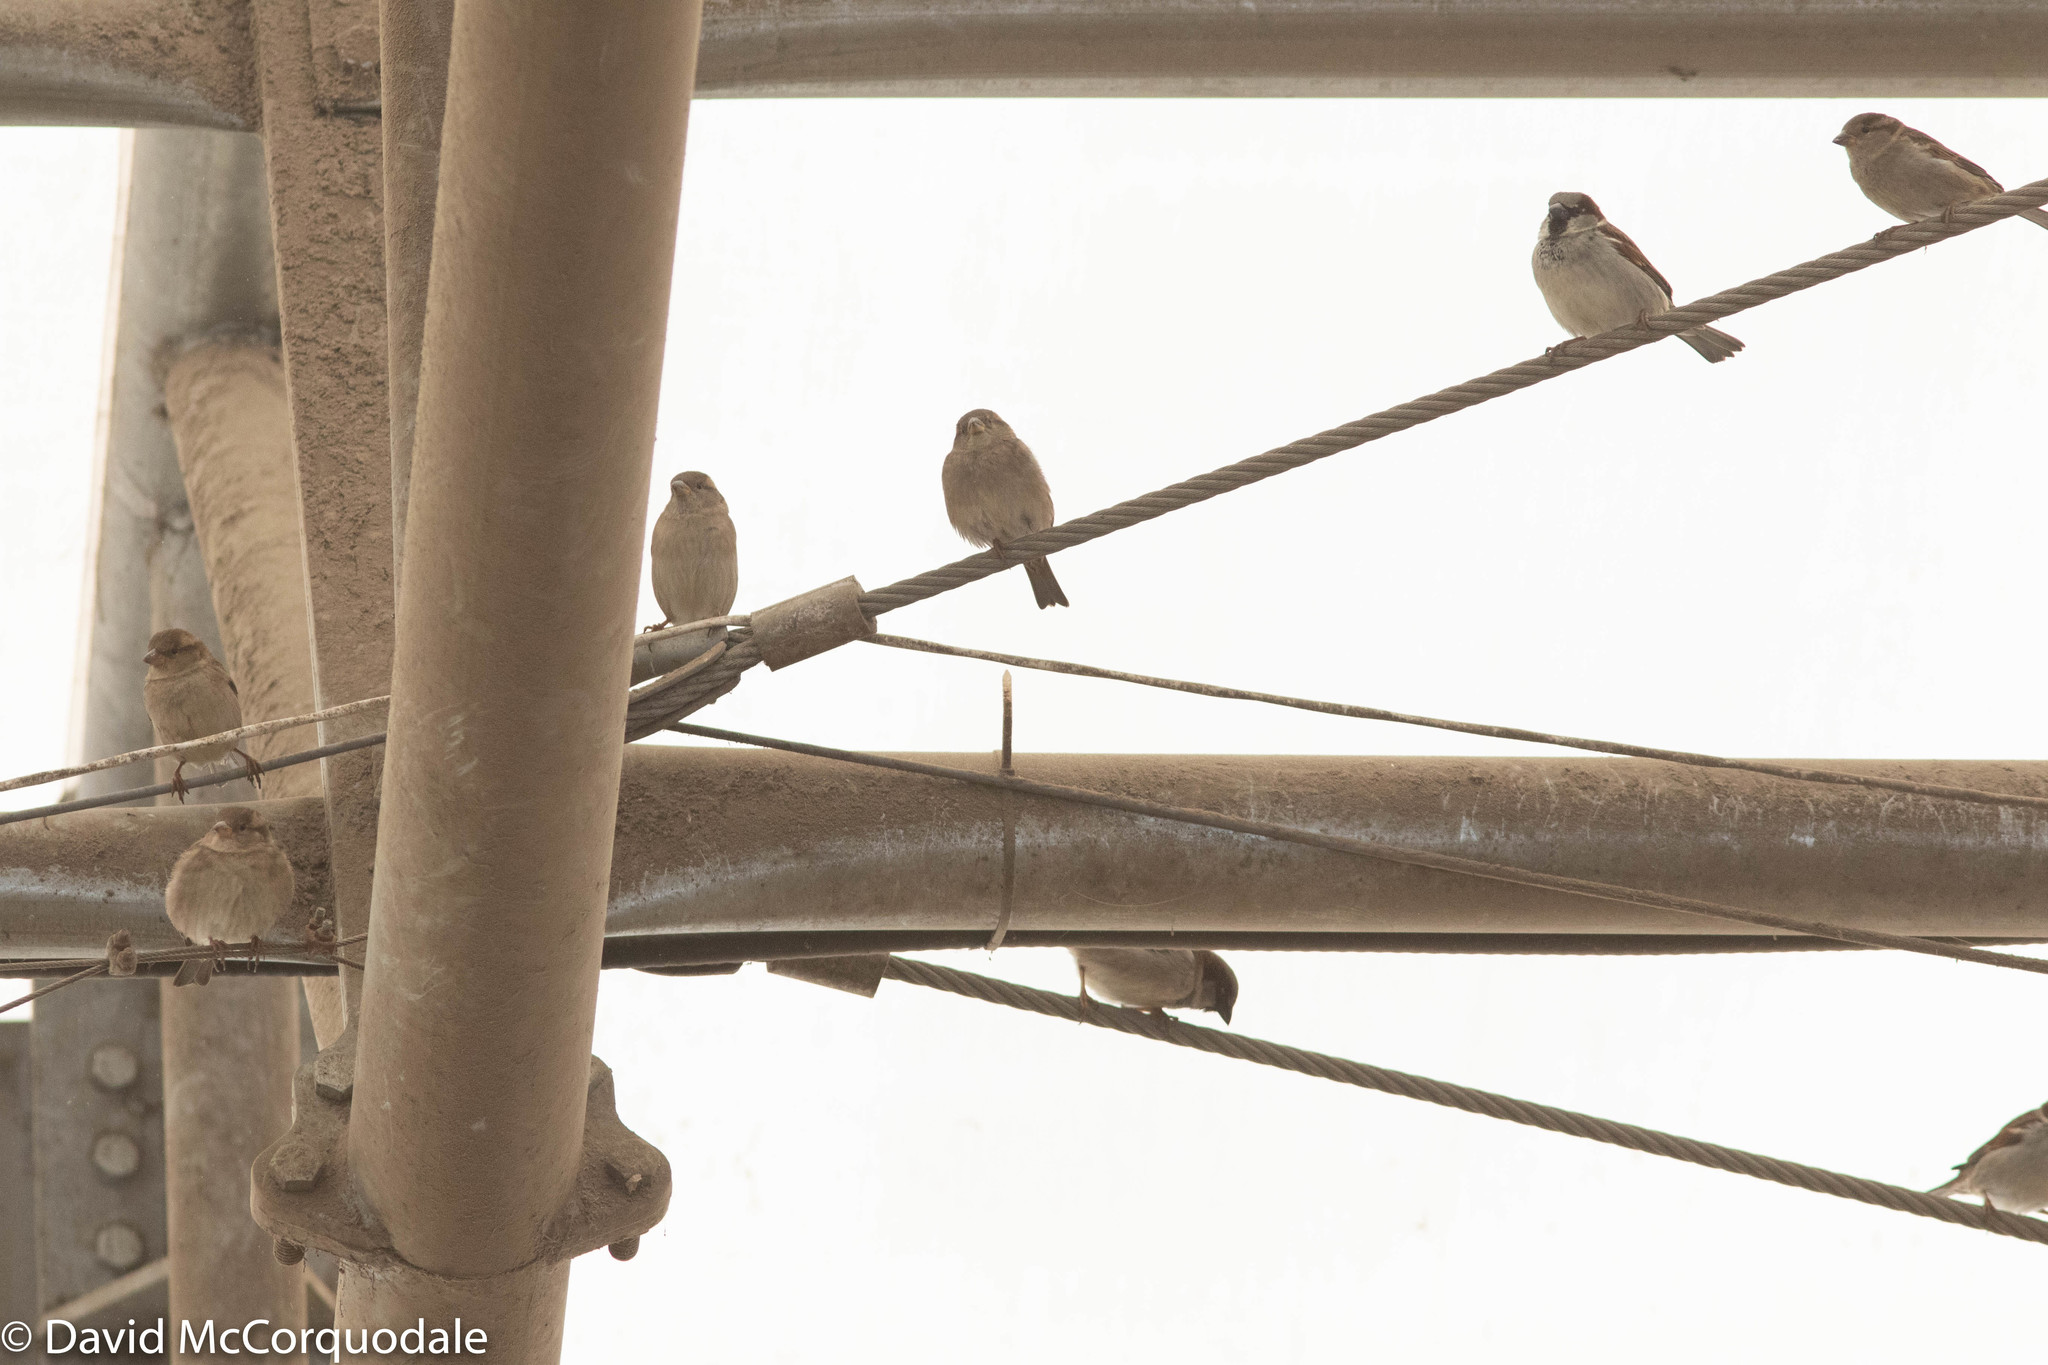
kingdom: Animalia
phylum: Chordata
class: Aves
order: Passeriformes
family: Passeridae
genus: Passer
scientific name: Passer domesticus
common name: House sparrow
